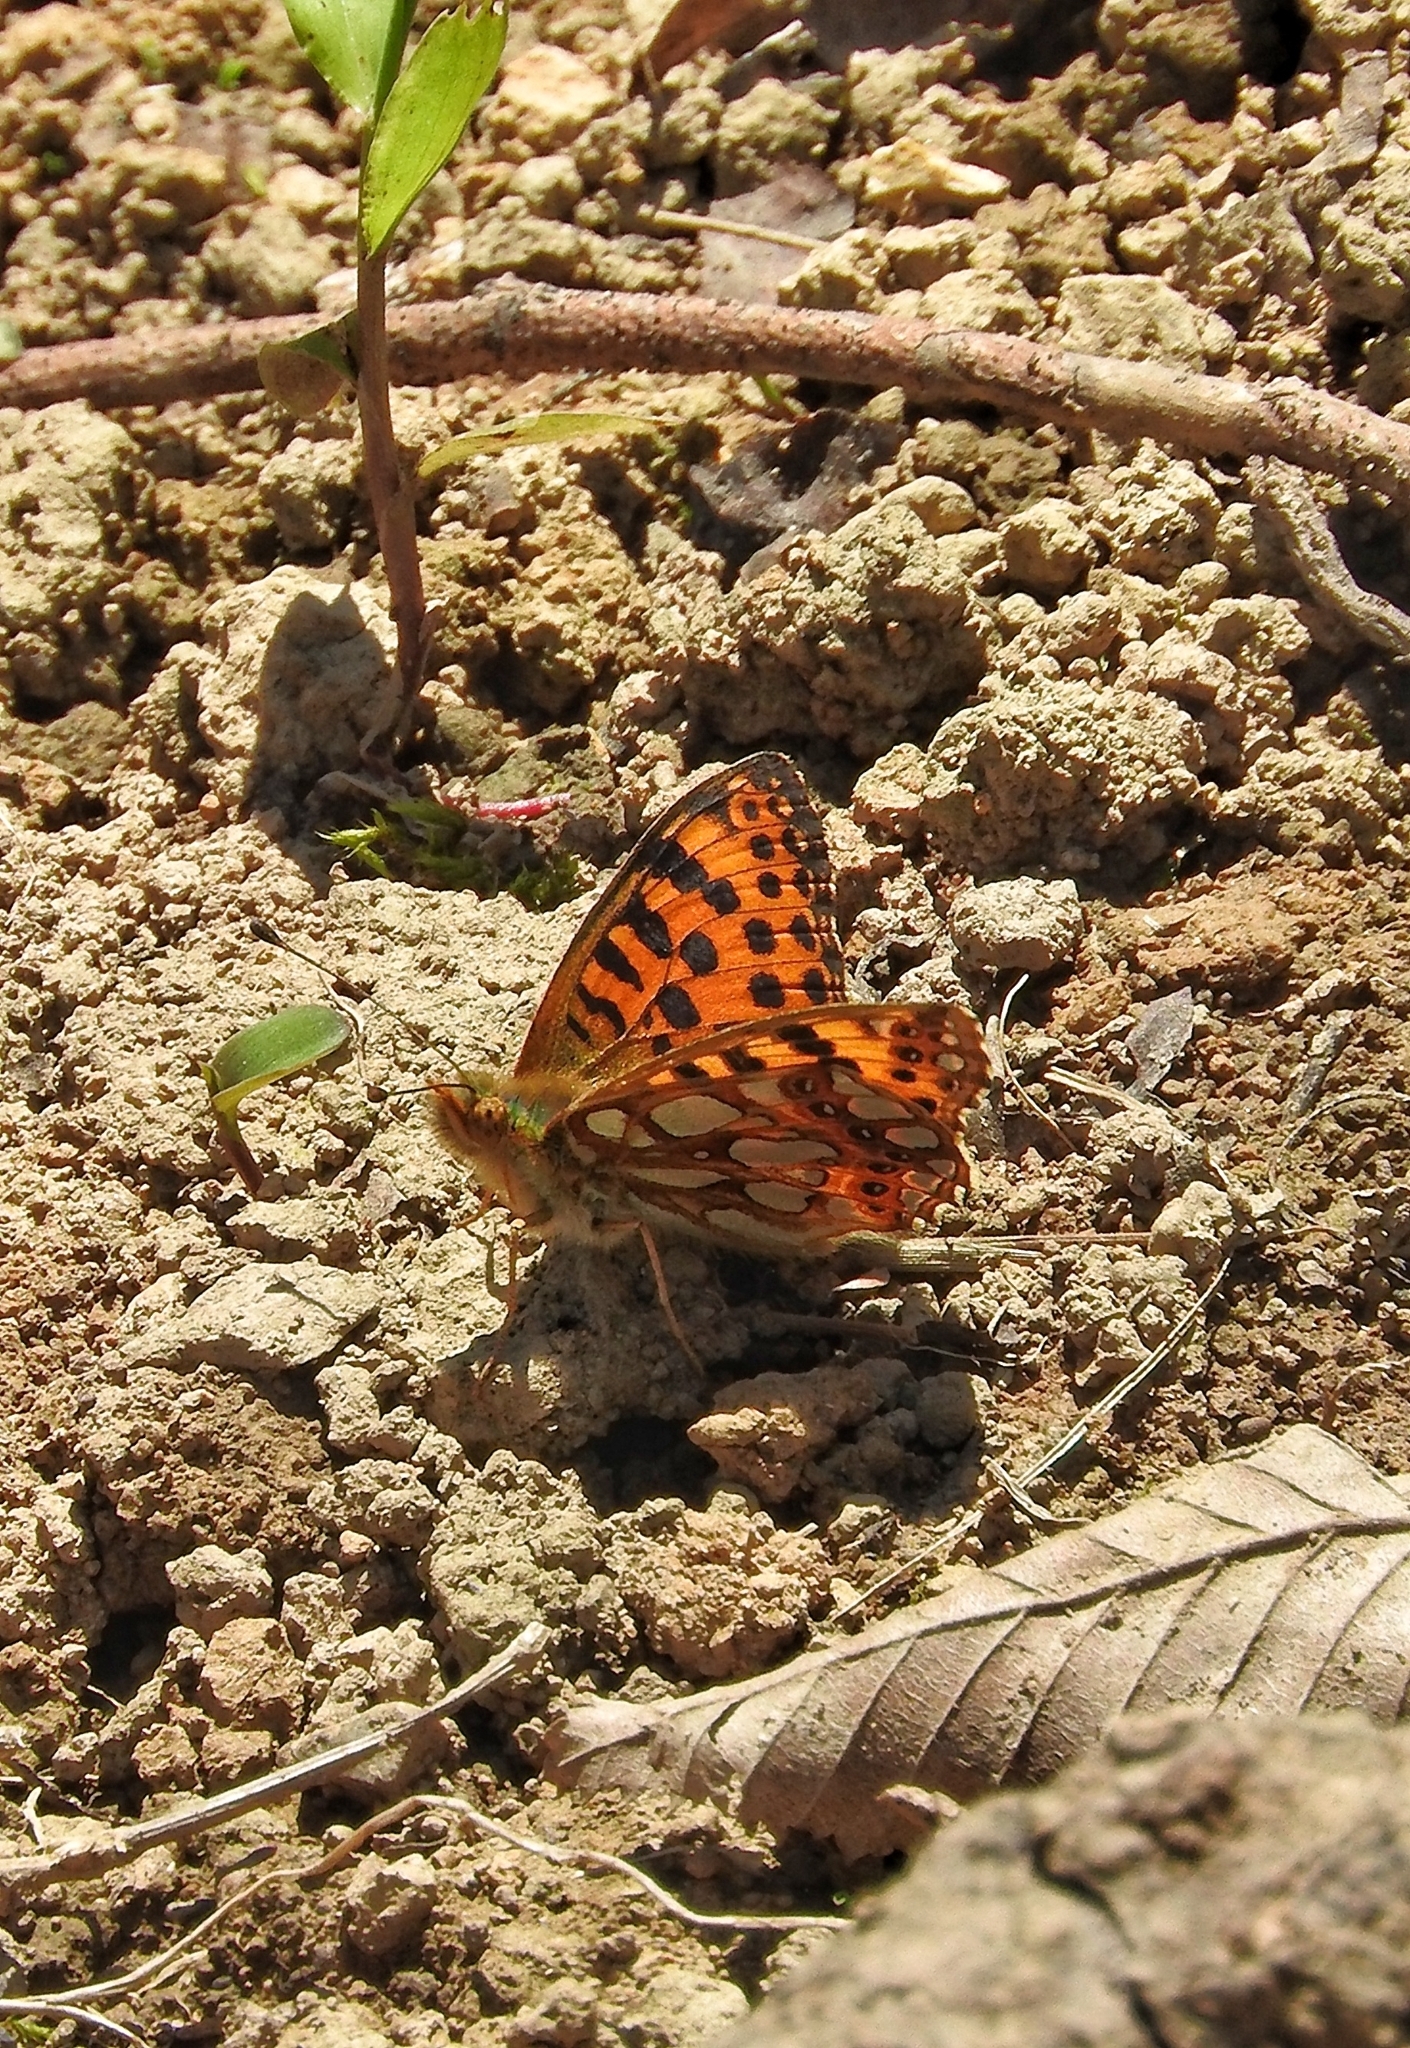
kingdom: Animalia
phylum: Arthropoda
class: Insecta
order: Lepidoptera
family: Nymphalidae
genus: Issoria
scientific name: Issoria lathonia
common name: Queen of spain fritillary
